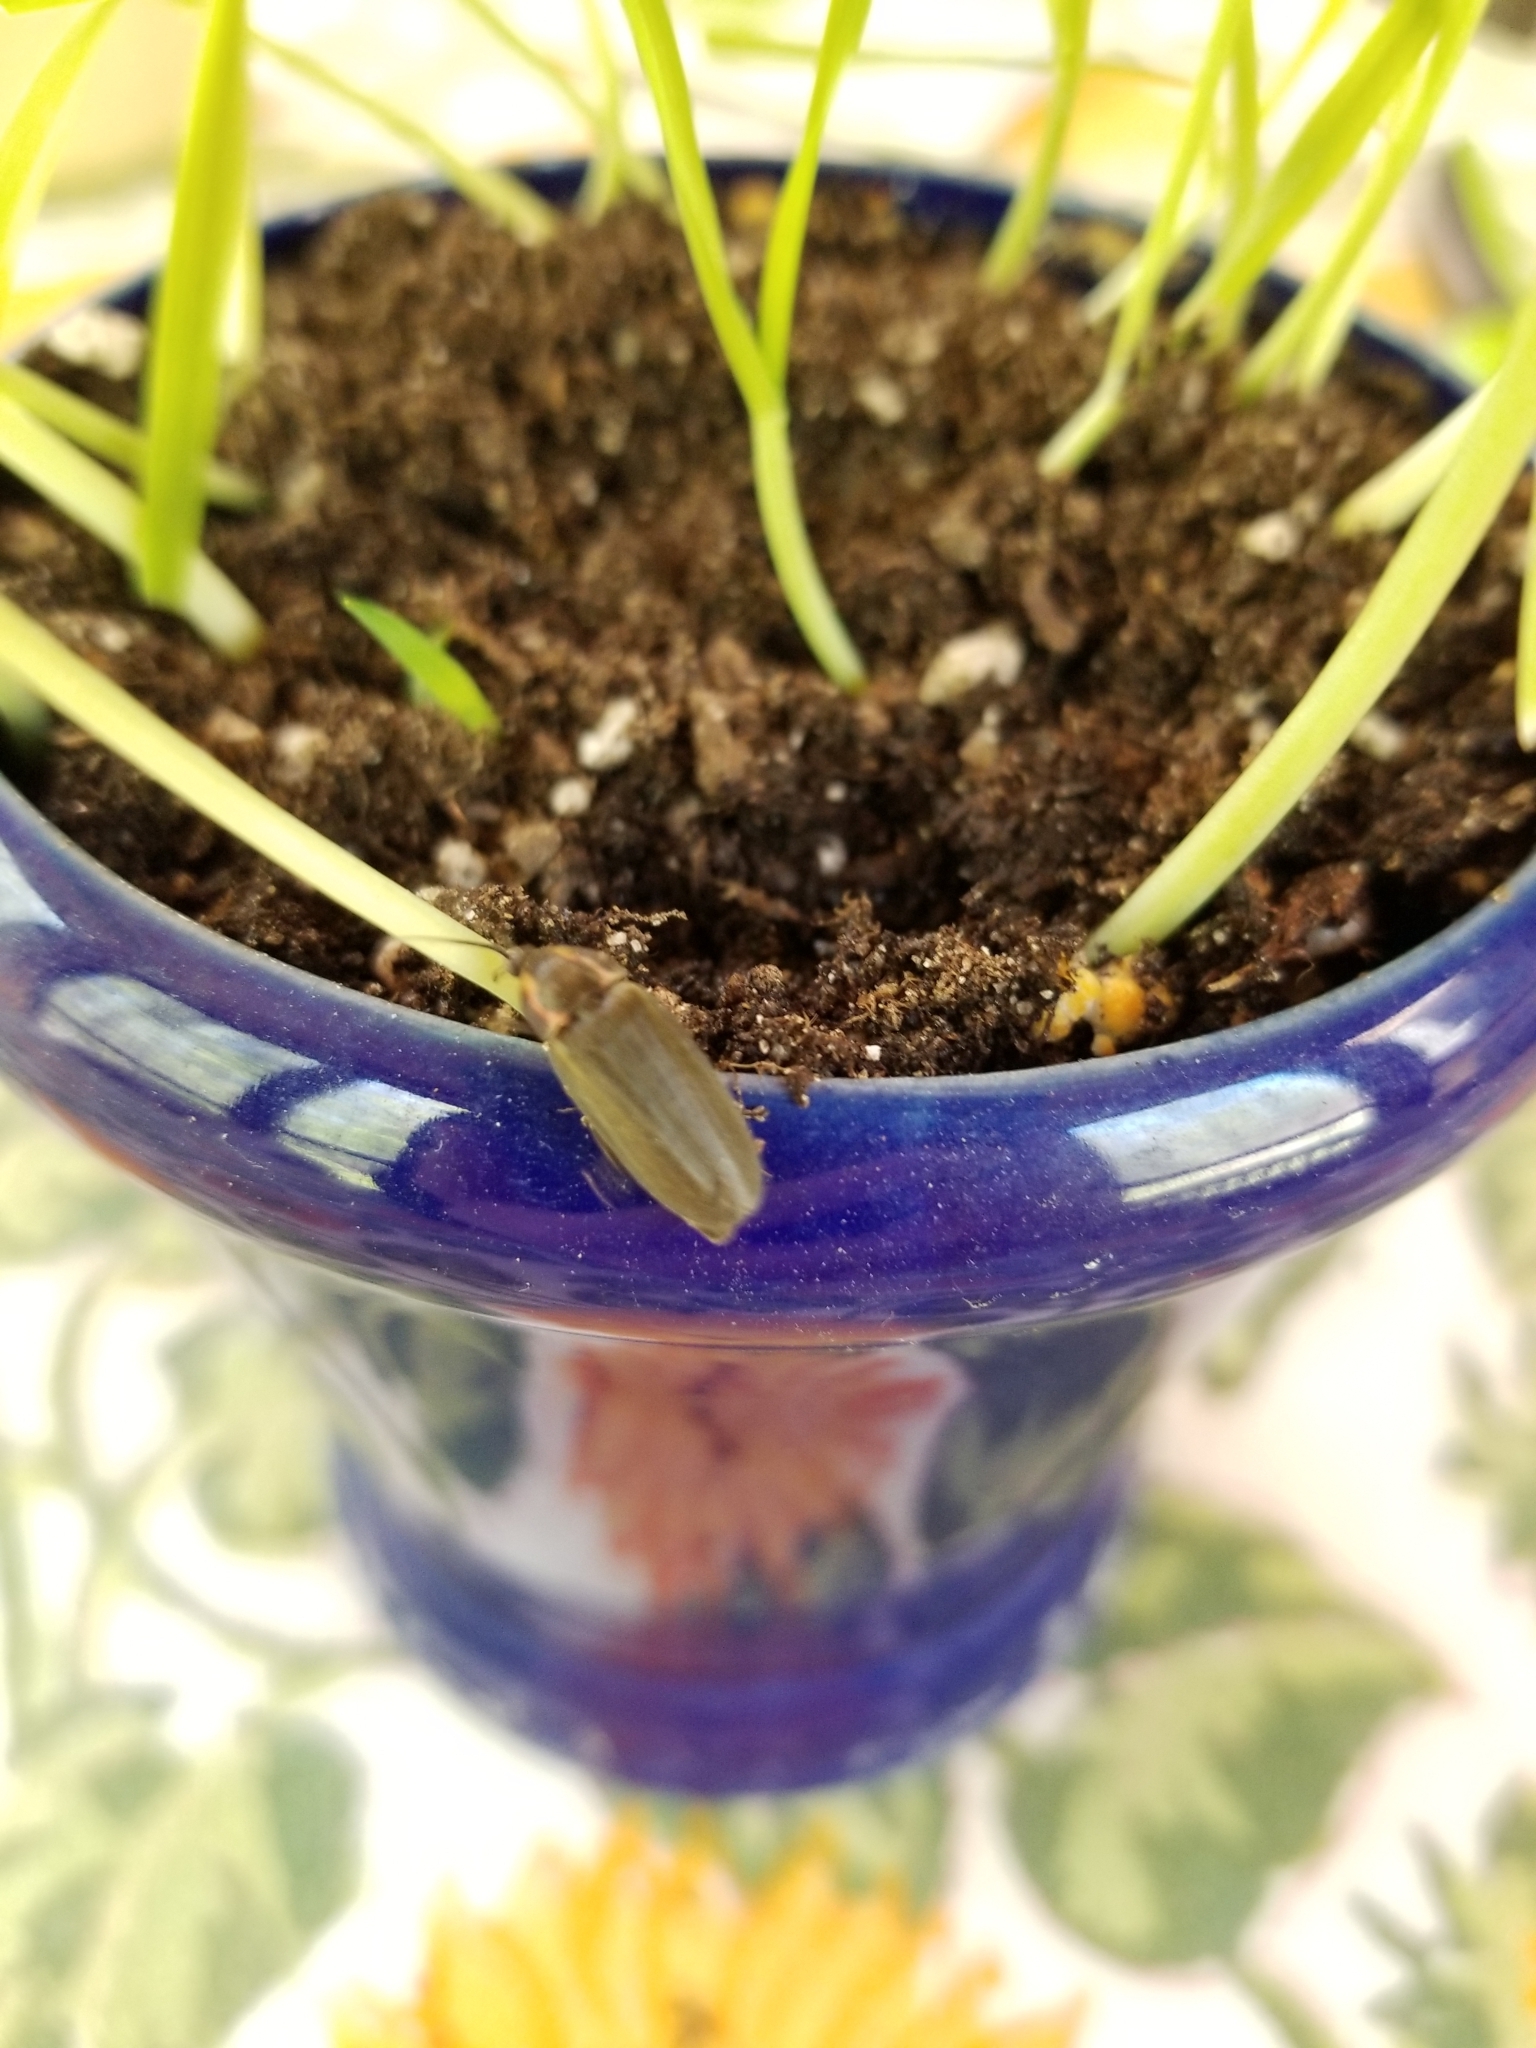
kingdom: Animalia
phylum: Arthropoda
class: Insecta
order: Coleoptera
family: Lampyridae
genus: Photinus
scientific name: Photinus corrusca
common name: Winter firefly
